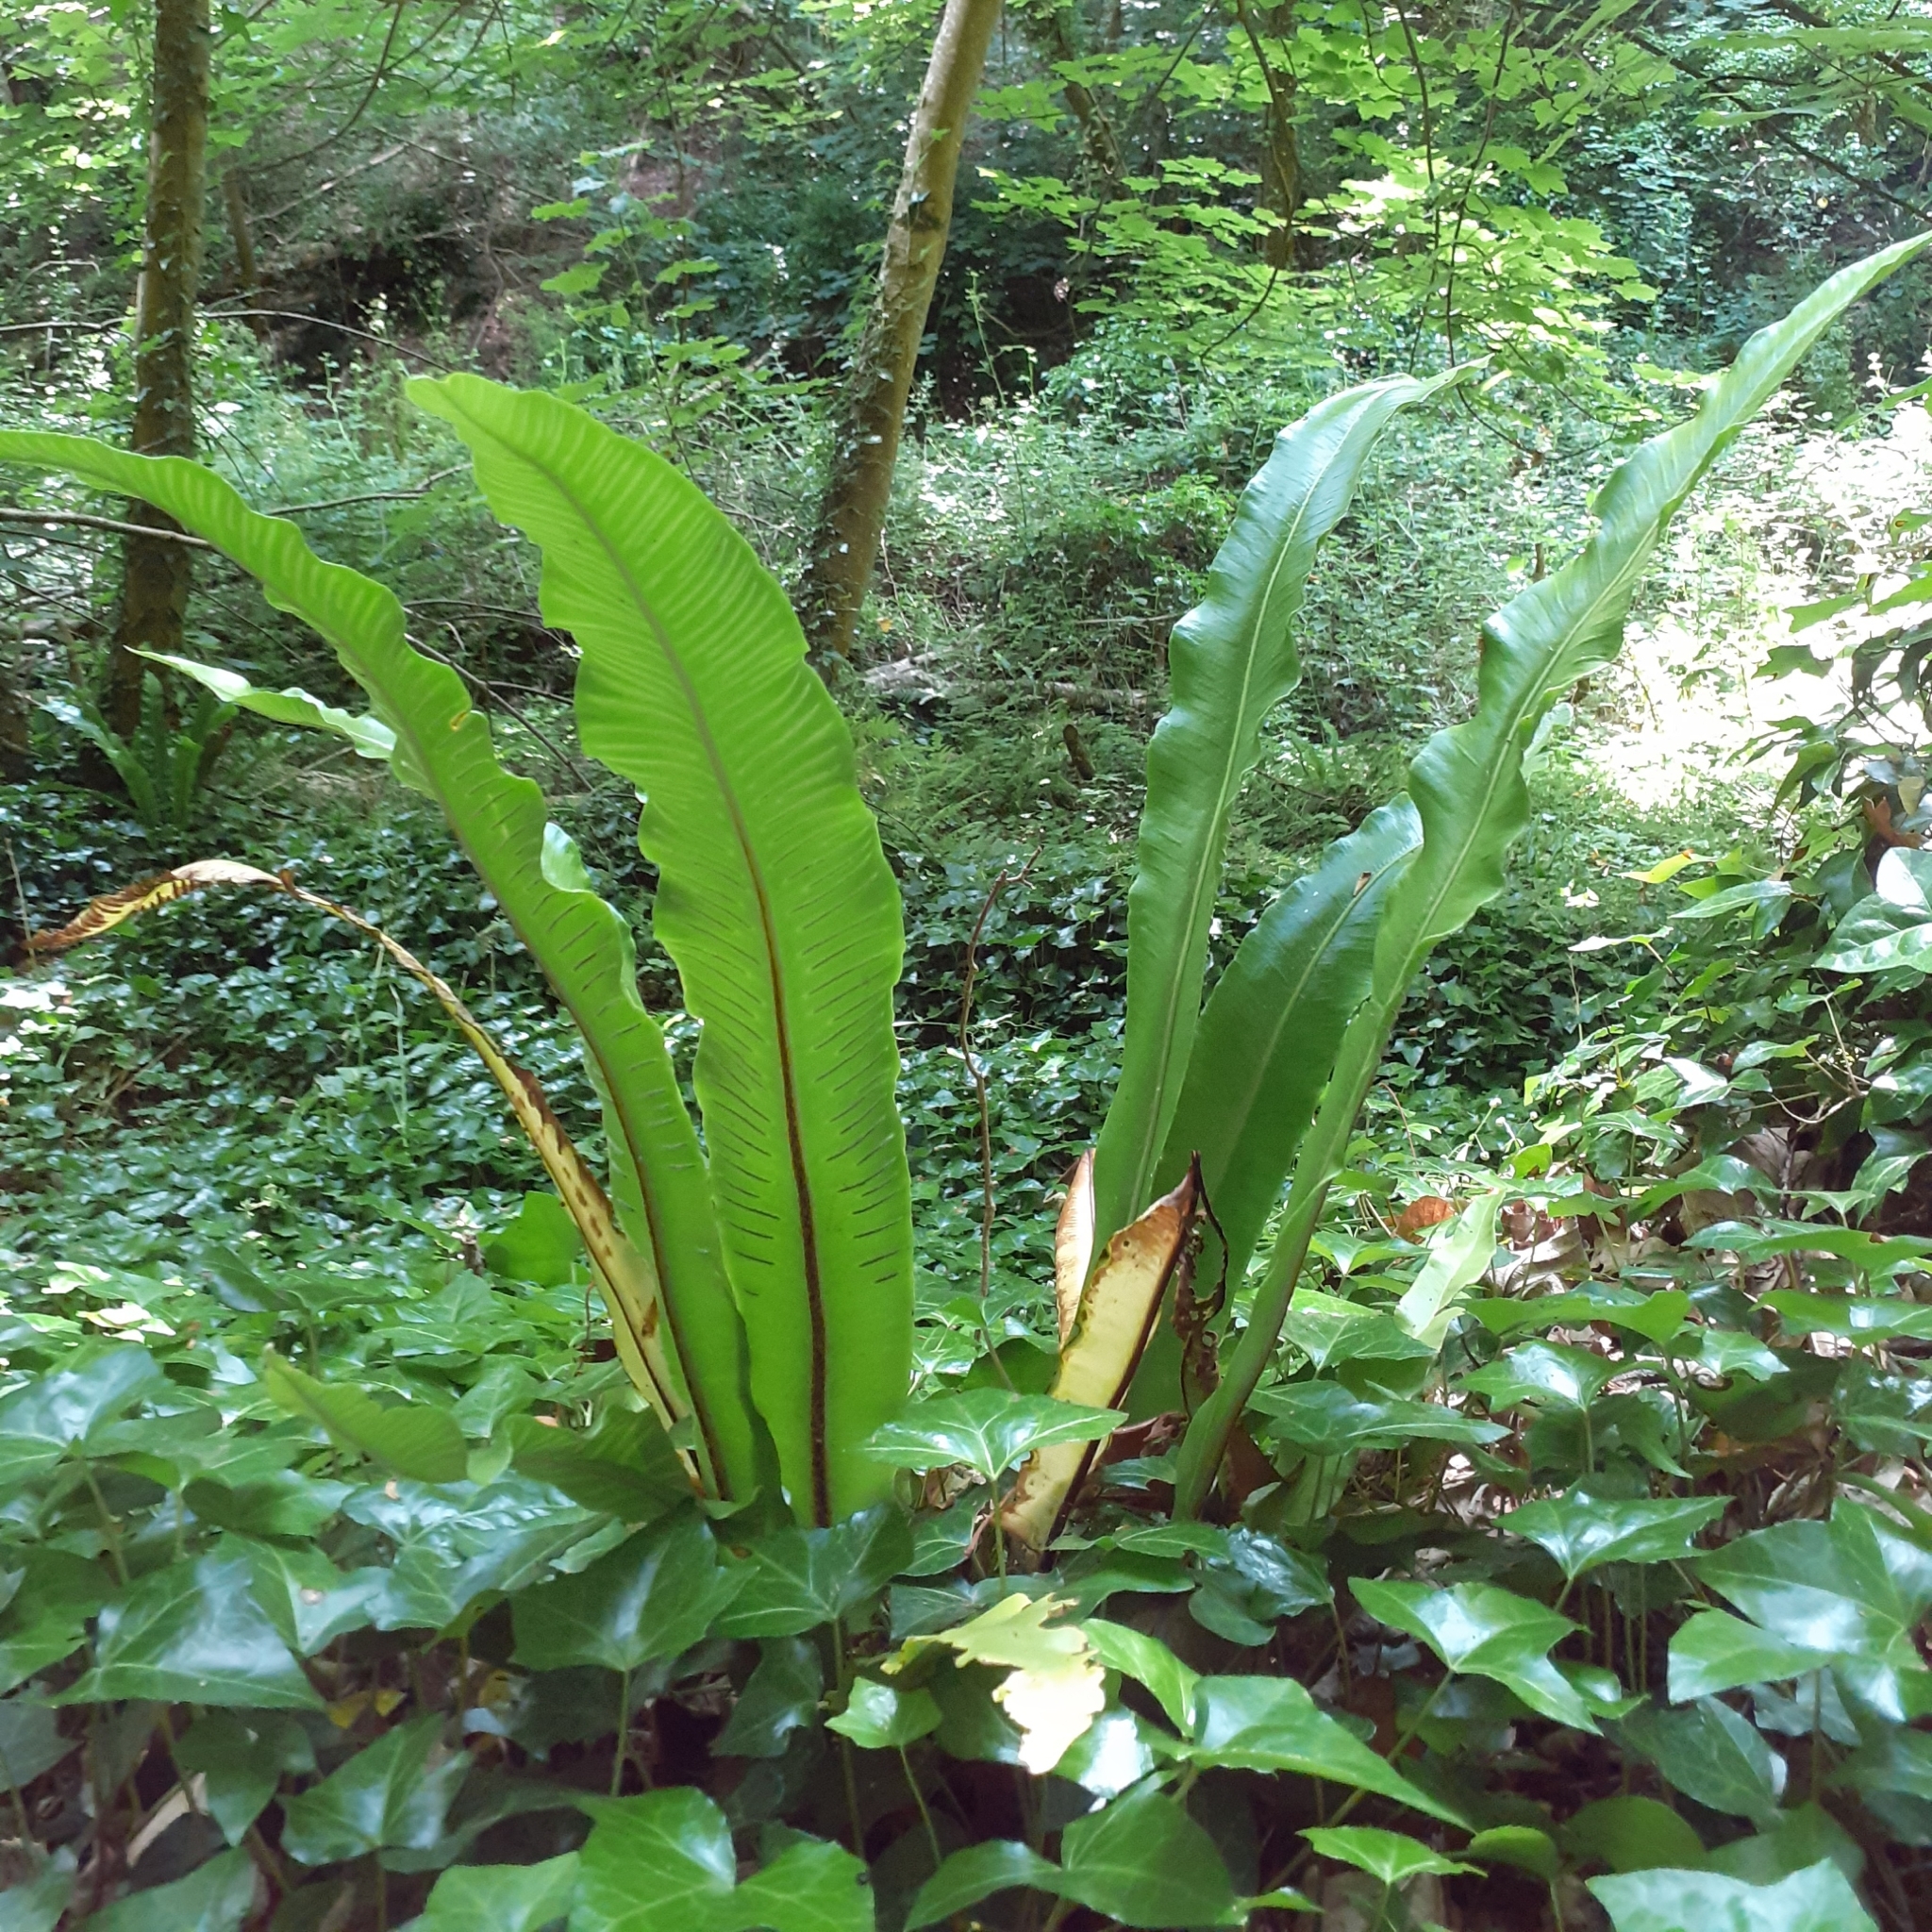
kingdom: Plantae
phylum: Tracheophyta
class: Polypodiopsida
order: Polypodiales
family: Aspleniaceae
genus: Asplenium
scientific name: Asplenium scolopendrium
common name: Hart's-tongue fern
